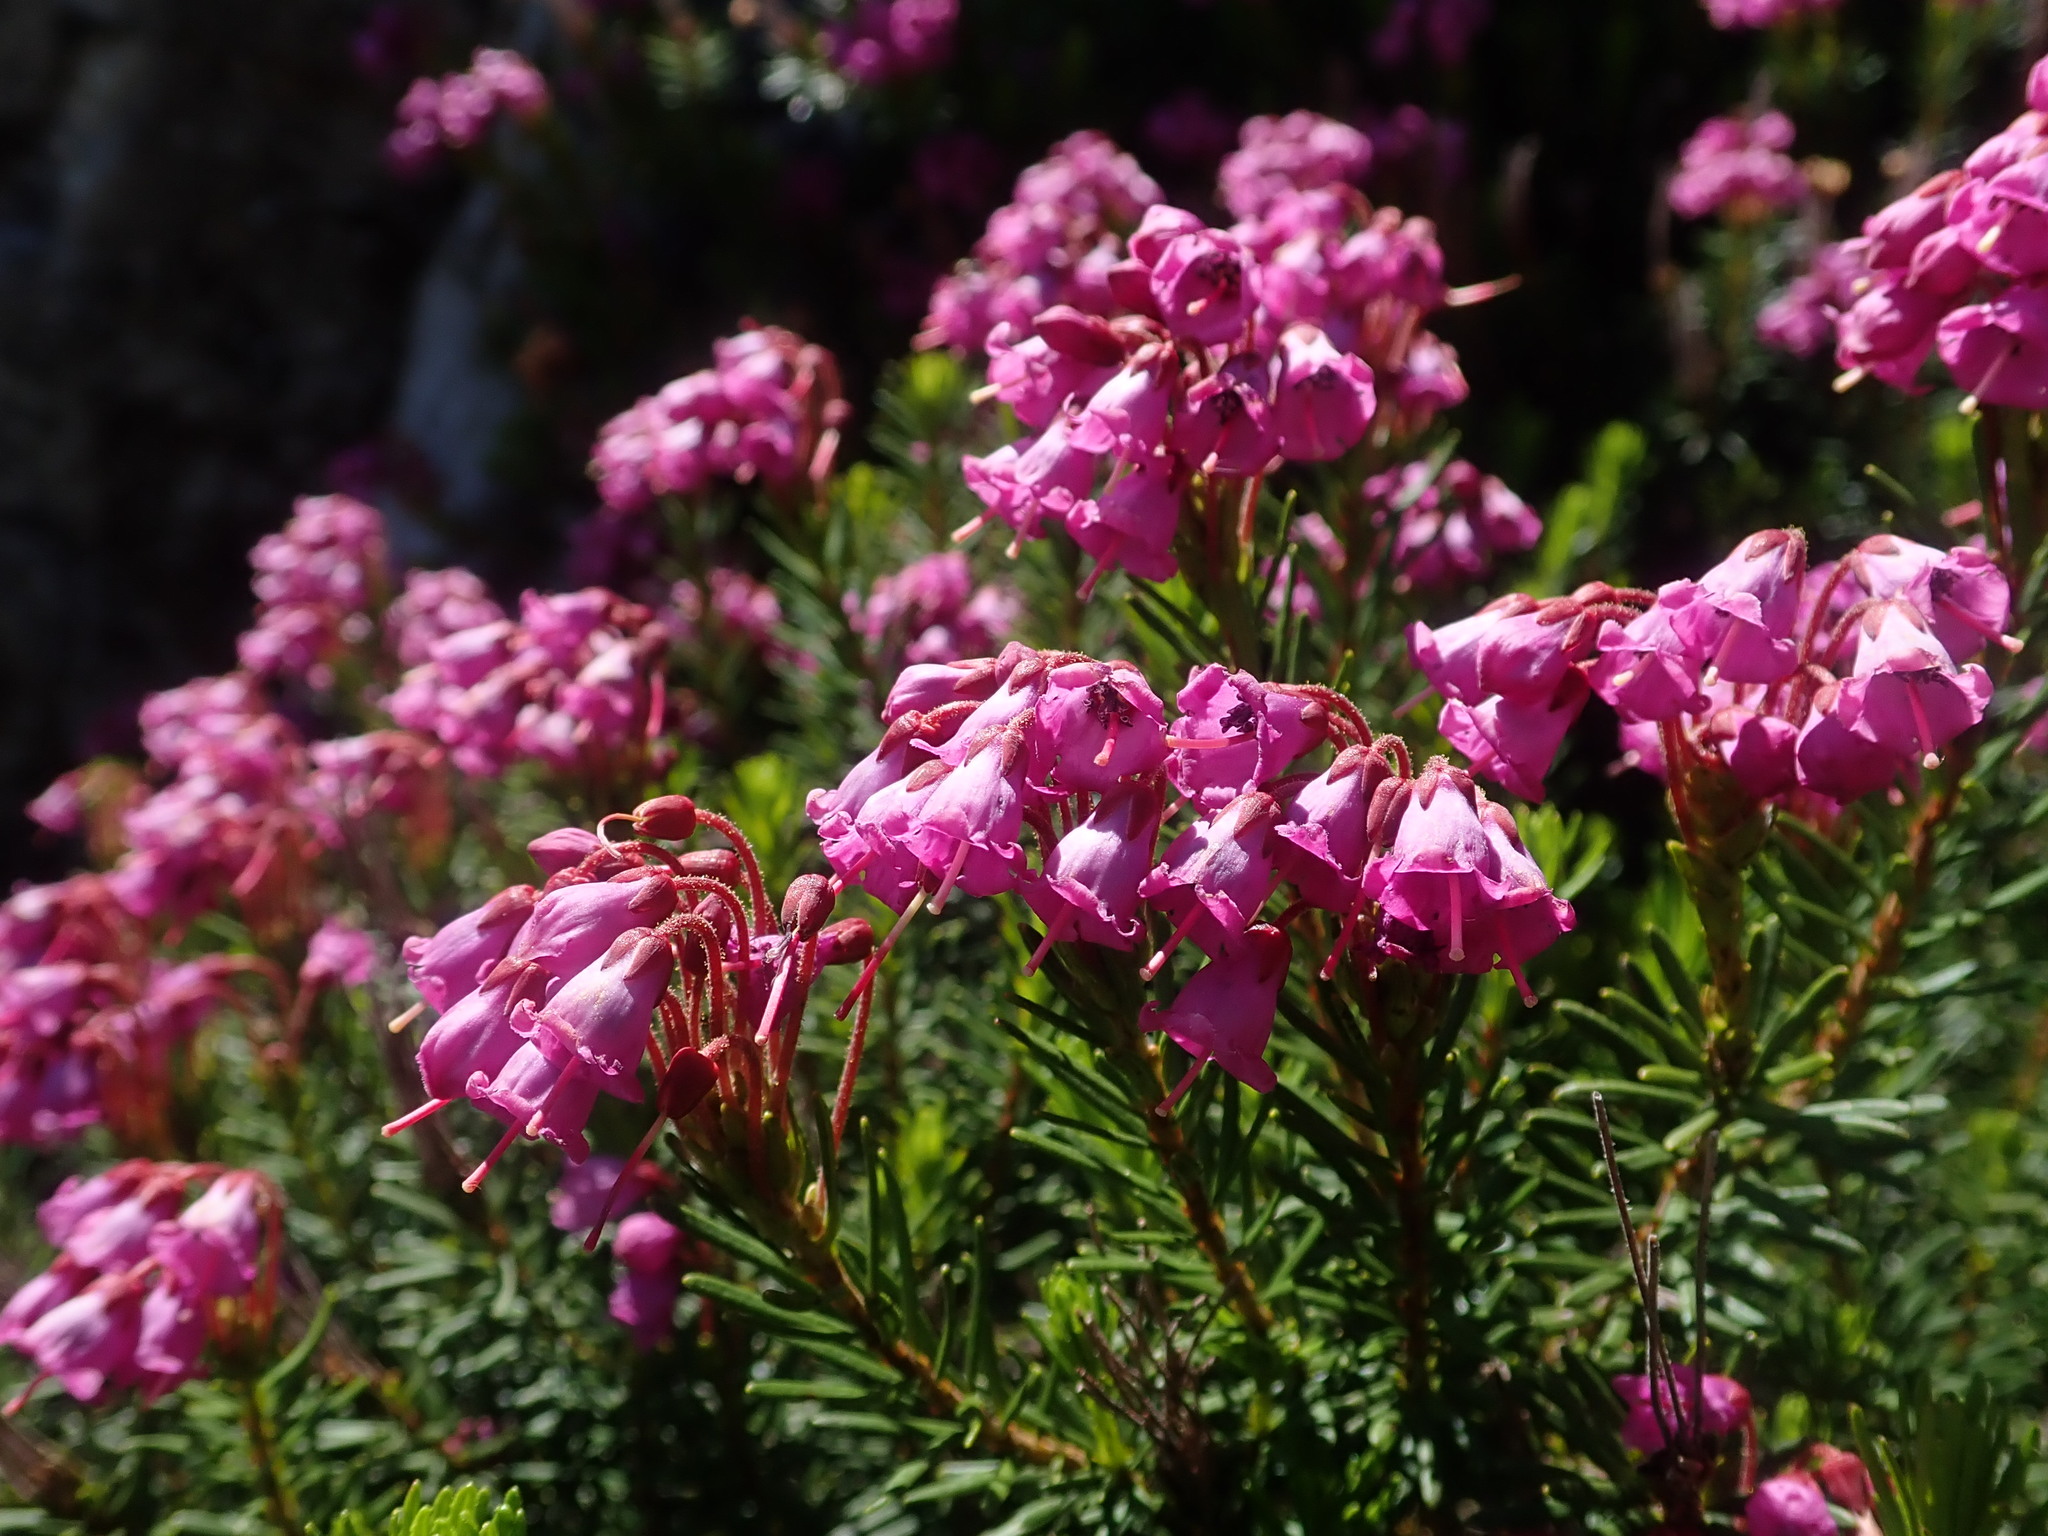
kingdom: Plantae
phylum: Tracheophyta
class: Magnoliopsida
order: Ericales
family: Ericaceae
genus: Phyllodoce
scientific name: Phyllodoce empetriformis
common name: Pink mountain heather
